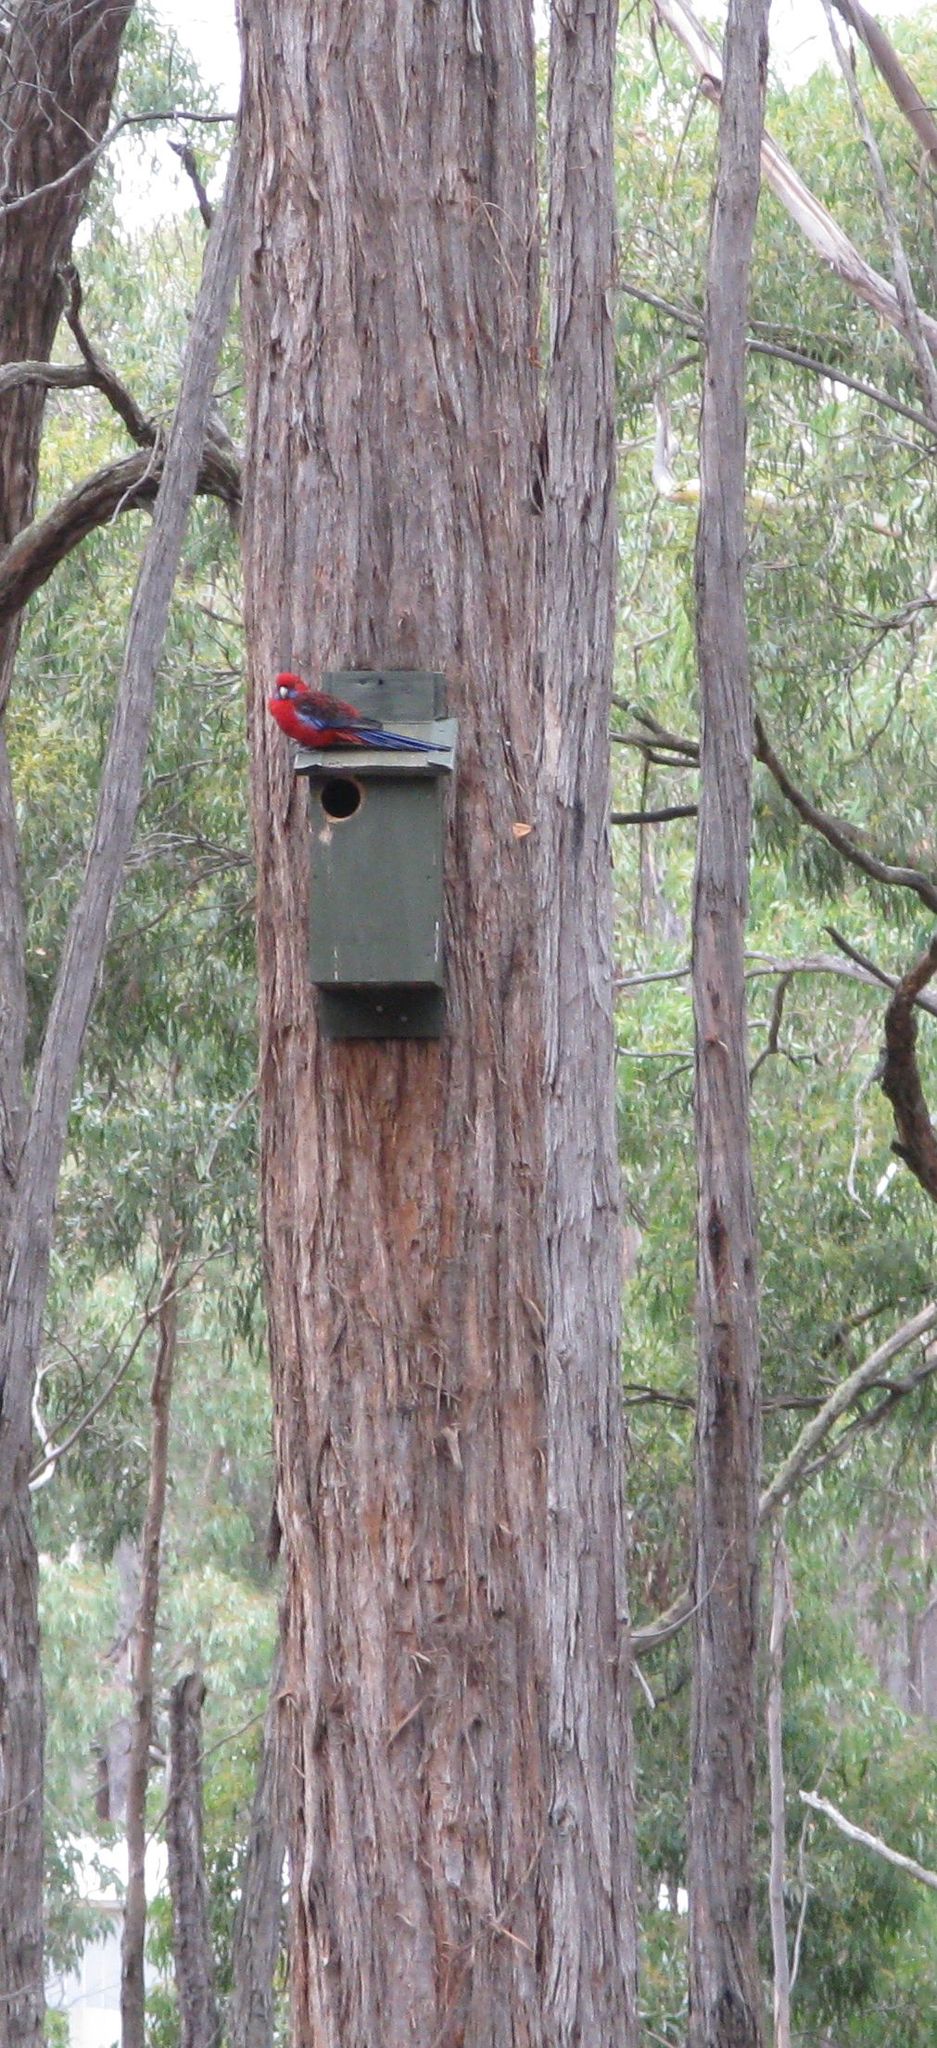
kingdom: Animalia
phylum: Chordata
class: Aves
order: Psittaciformes
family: Psittacidae
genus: Platycercus
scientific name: Platycercus elegans
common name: Crimson rosella
